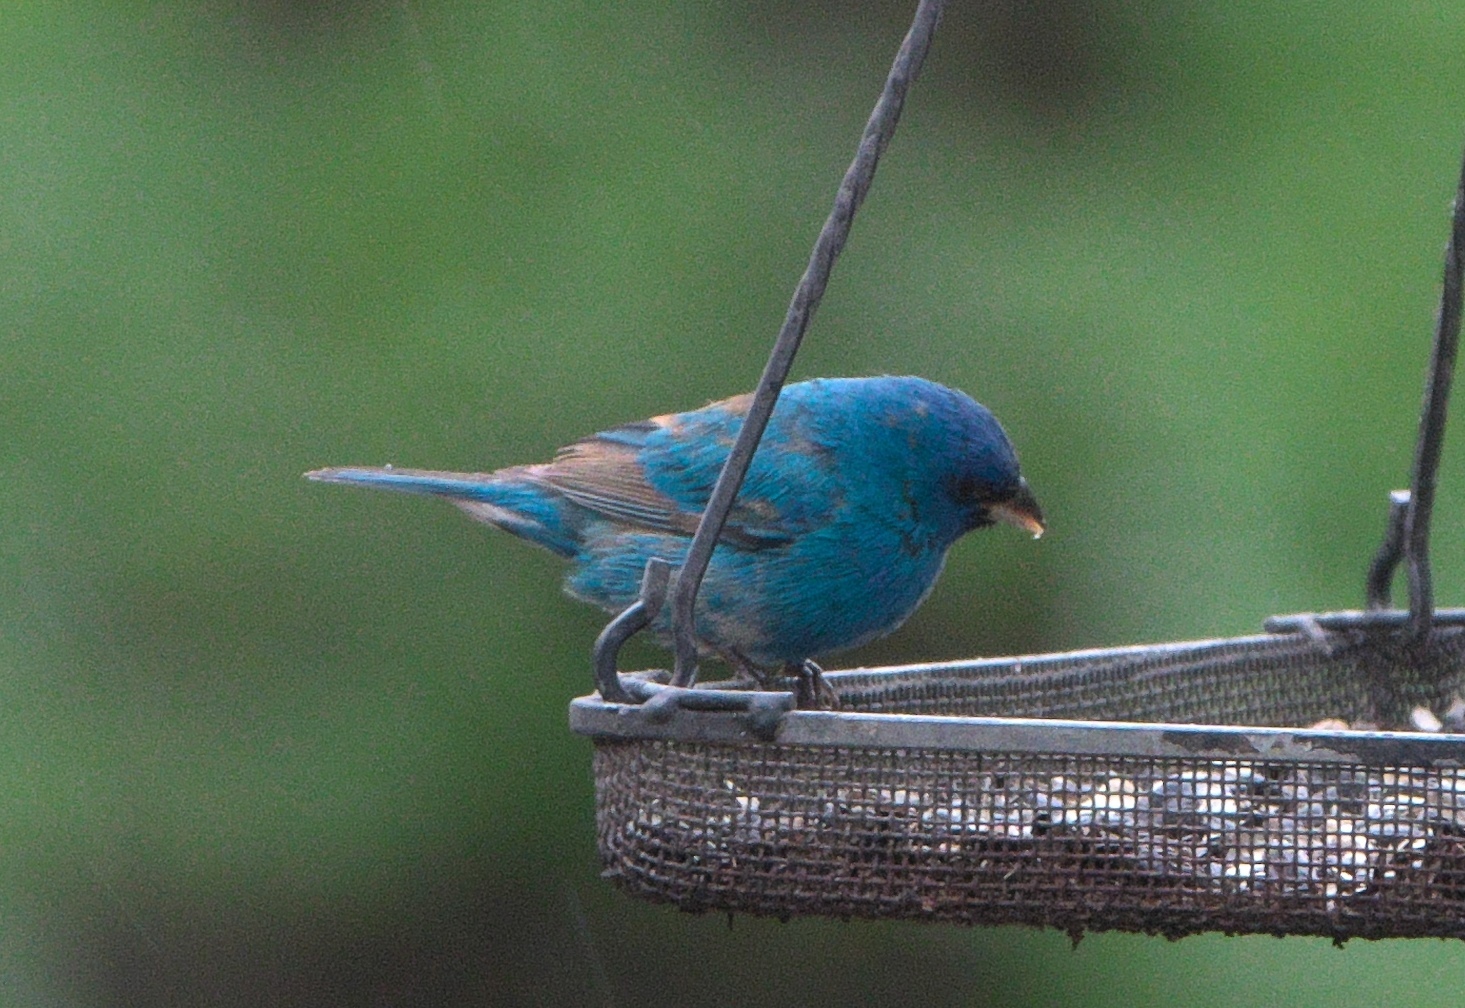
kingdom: Animalia
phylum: Chordata
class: Aves
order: Passeriformes
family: Cardinalidae
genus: Passerina
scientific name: Passerina cyanea
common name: Indigo bunting
